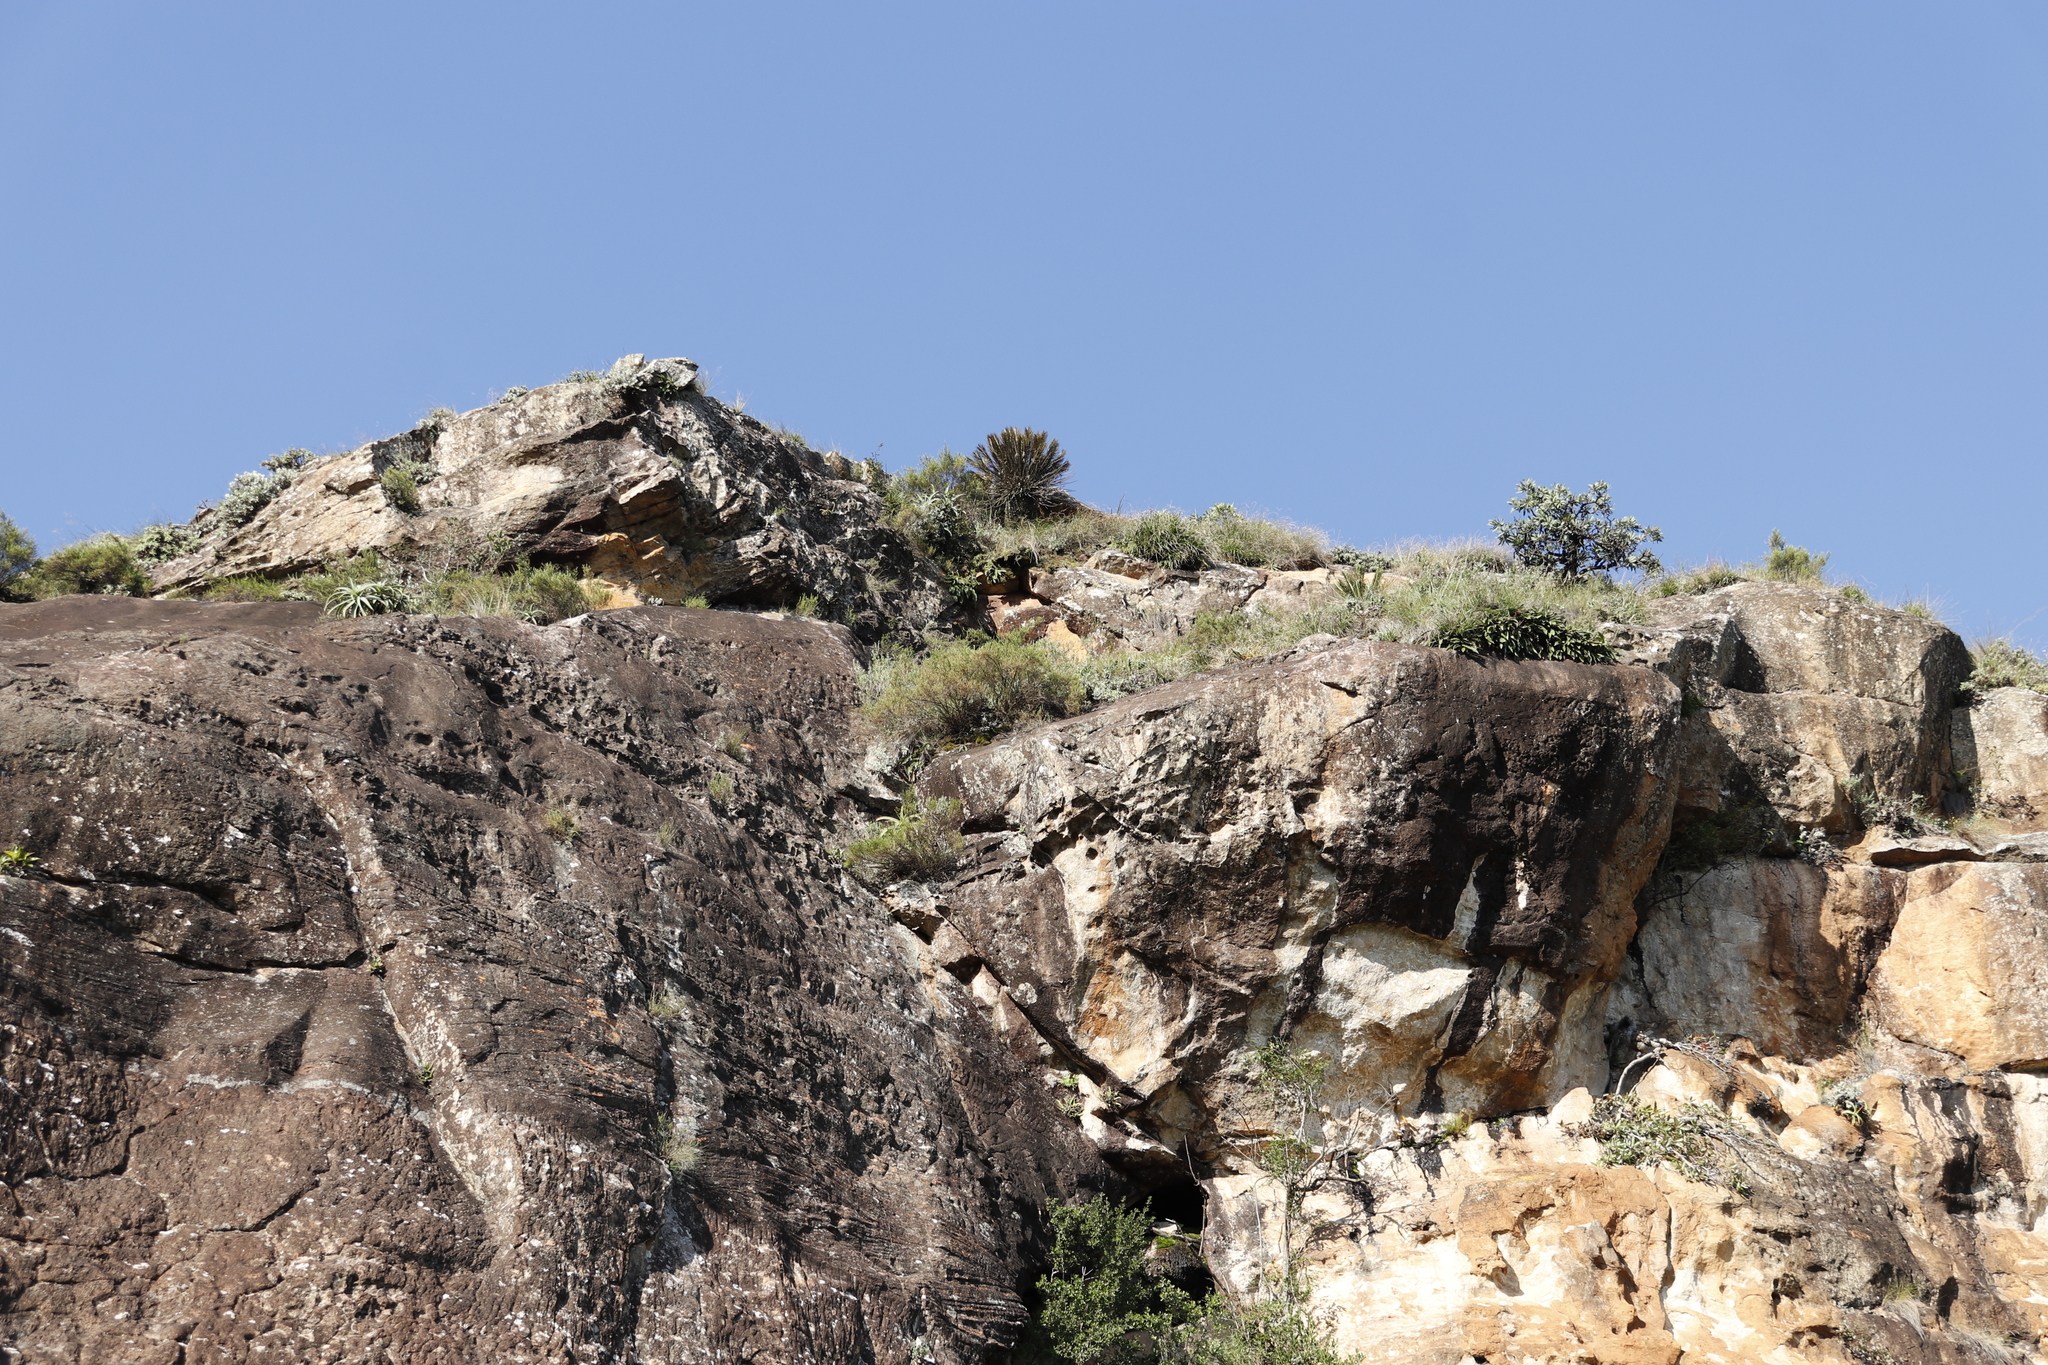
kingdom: Plantae
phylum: Tracheophyta
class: Cycadopsida
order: Cycadales
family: Zamiaceae
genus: Encephalartos
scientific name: Encephalartos ghellinckii
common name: Drakensberg cycad
